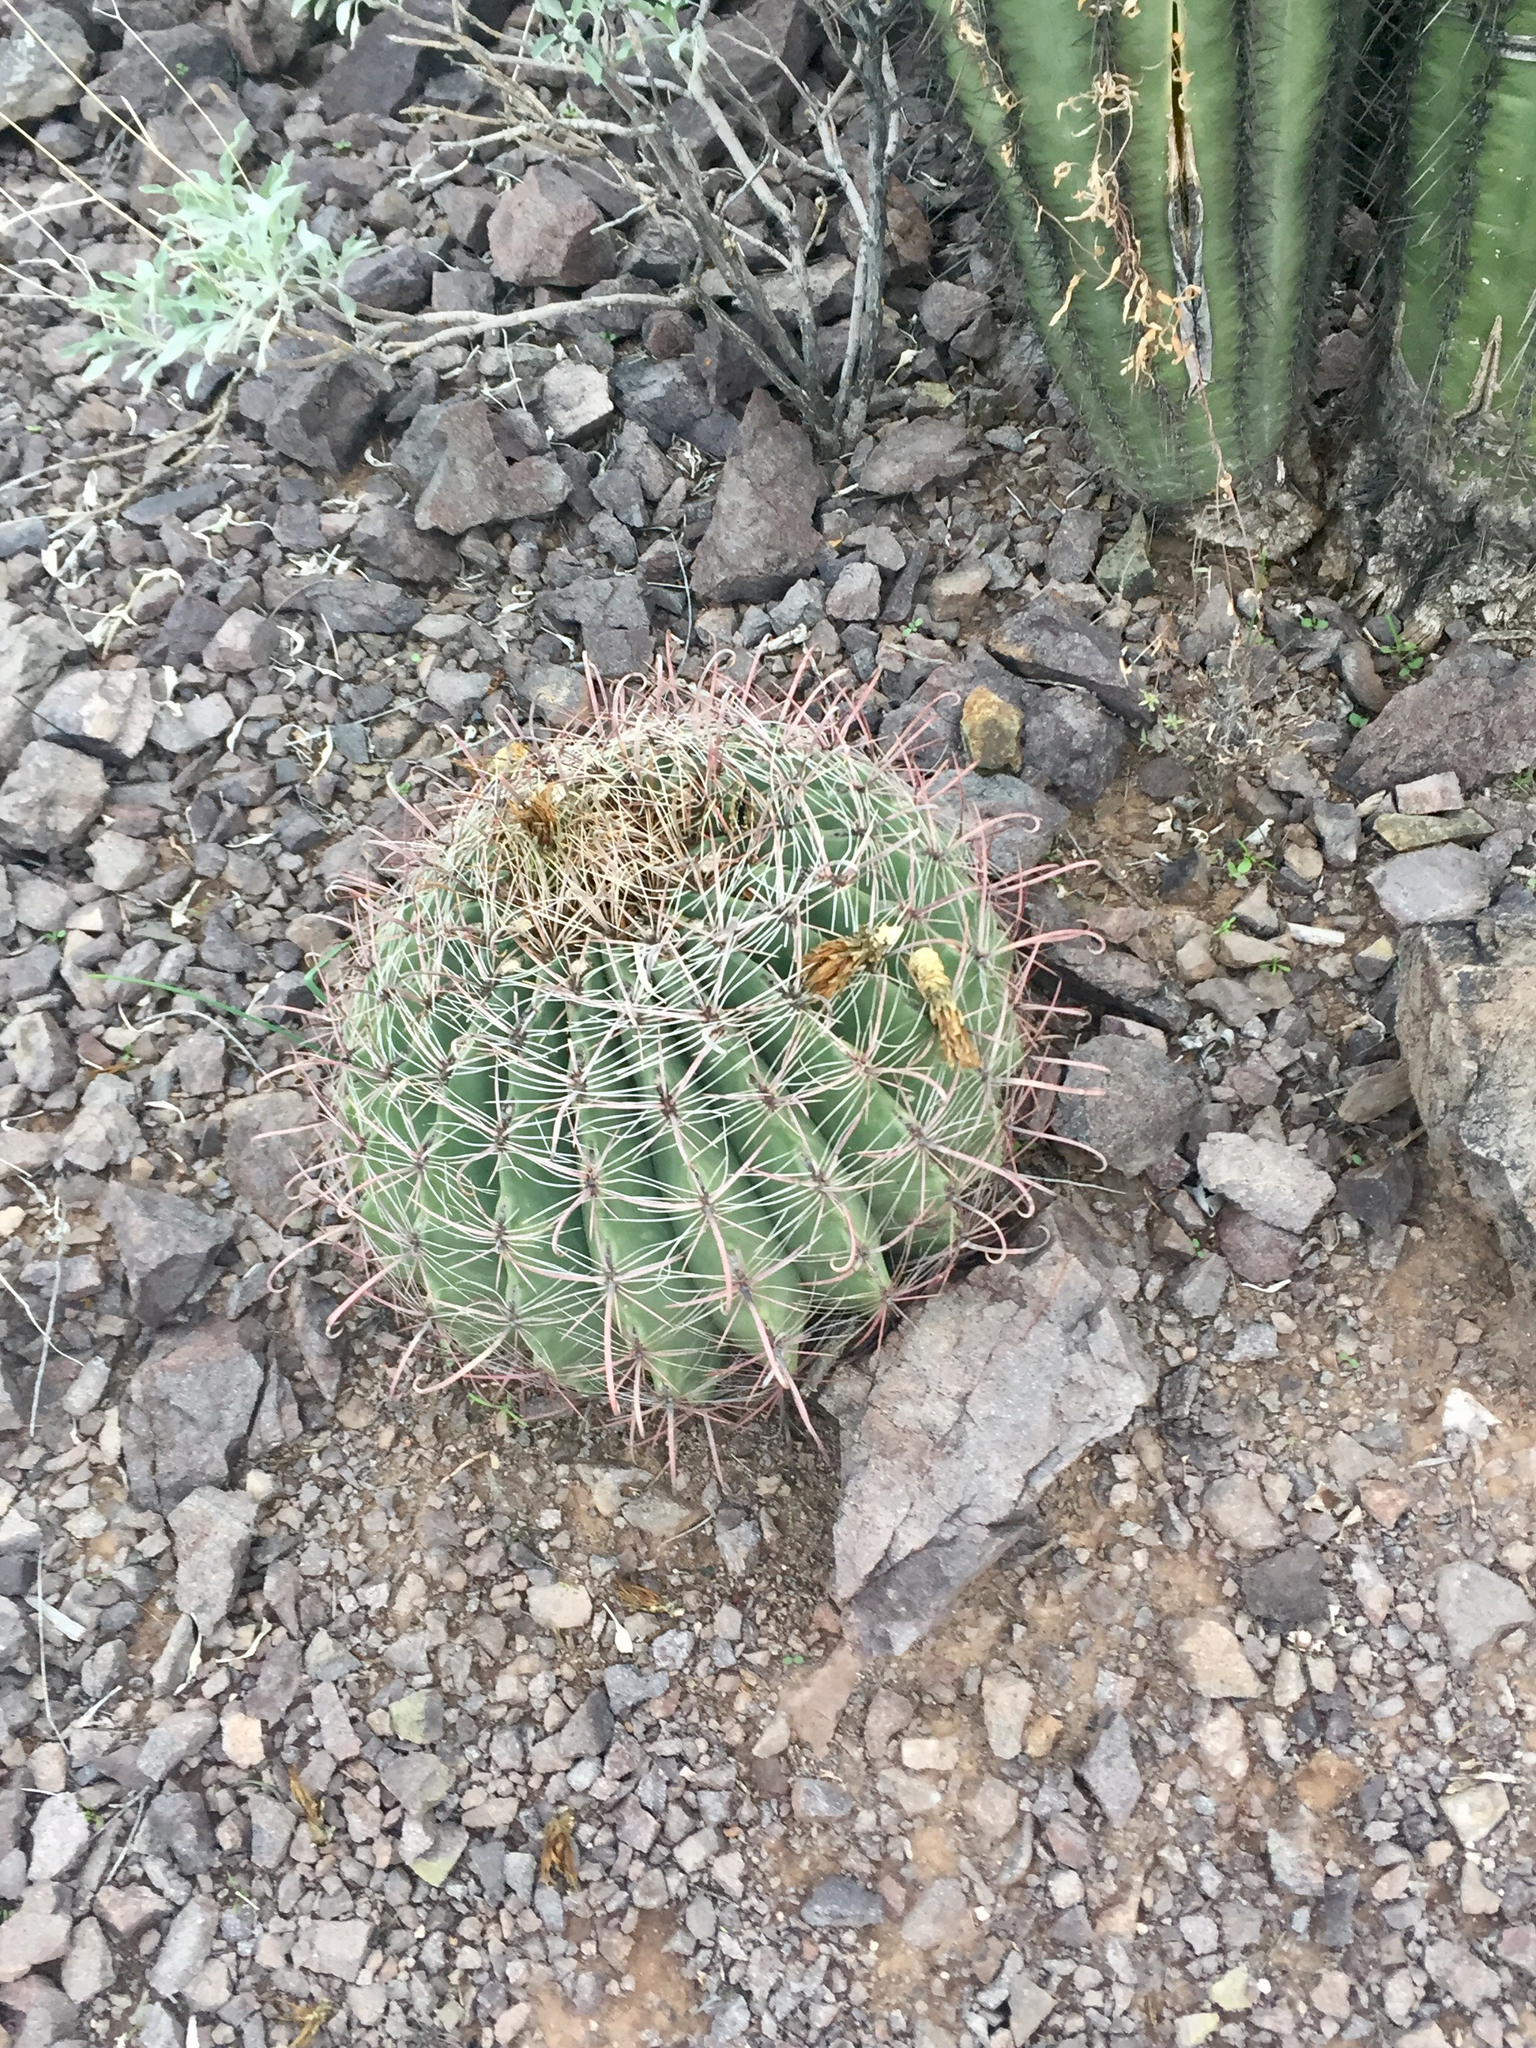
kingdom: Plantae
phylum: Tracheophyta
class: Magnoliopsida
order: Caryophyllales
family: Cactaceae
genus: Ferocactus
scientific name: Ferocactus wislizeni
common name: Candy barrel cactus
